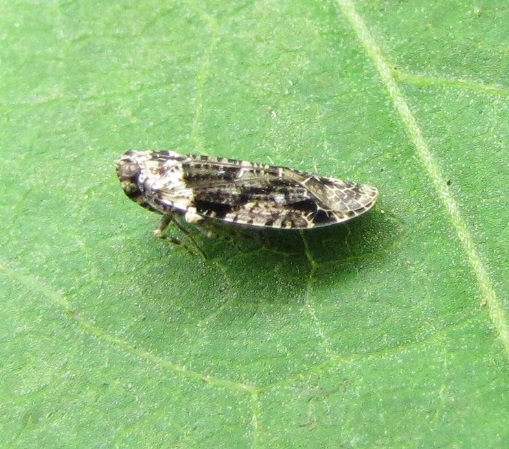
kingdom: Animalia
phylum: Arthropoda
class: Insecta
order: Hemiptera
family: Achilidae
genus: Catonia
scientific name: Catonia nava
